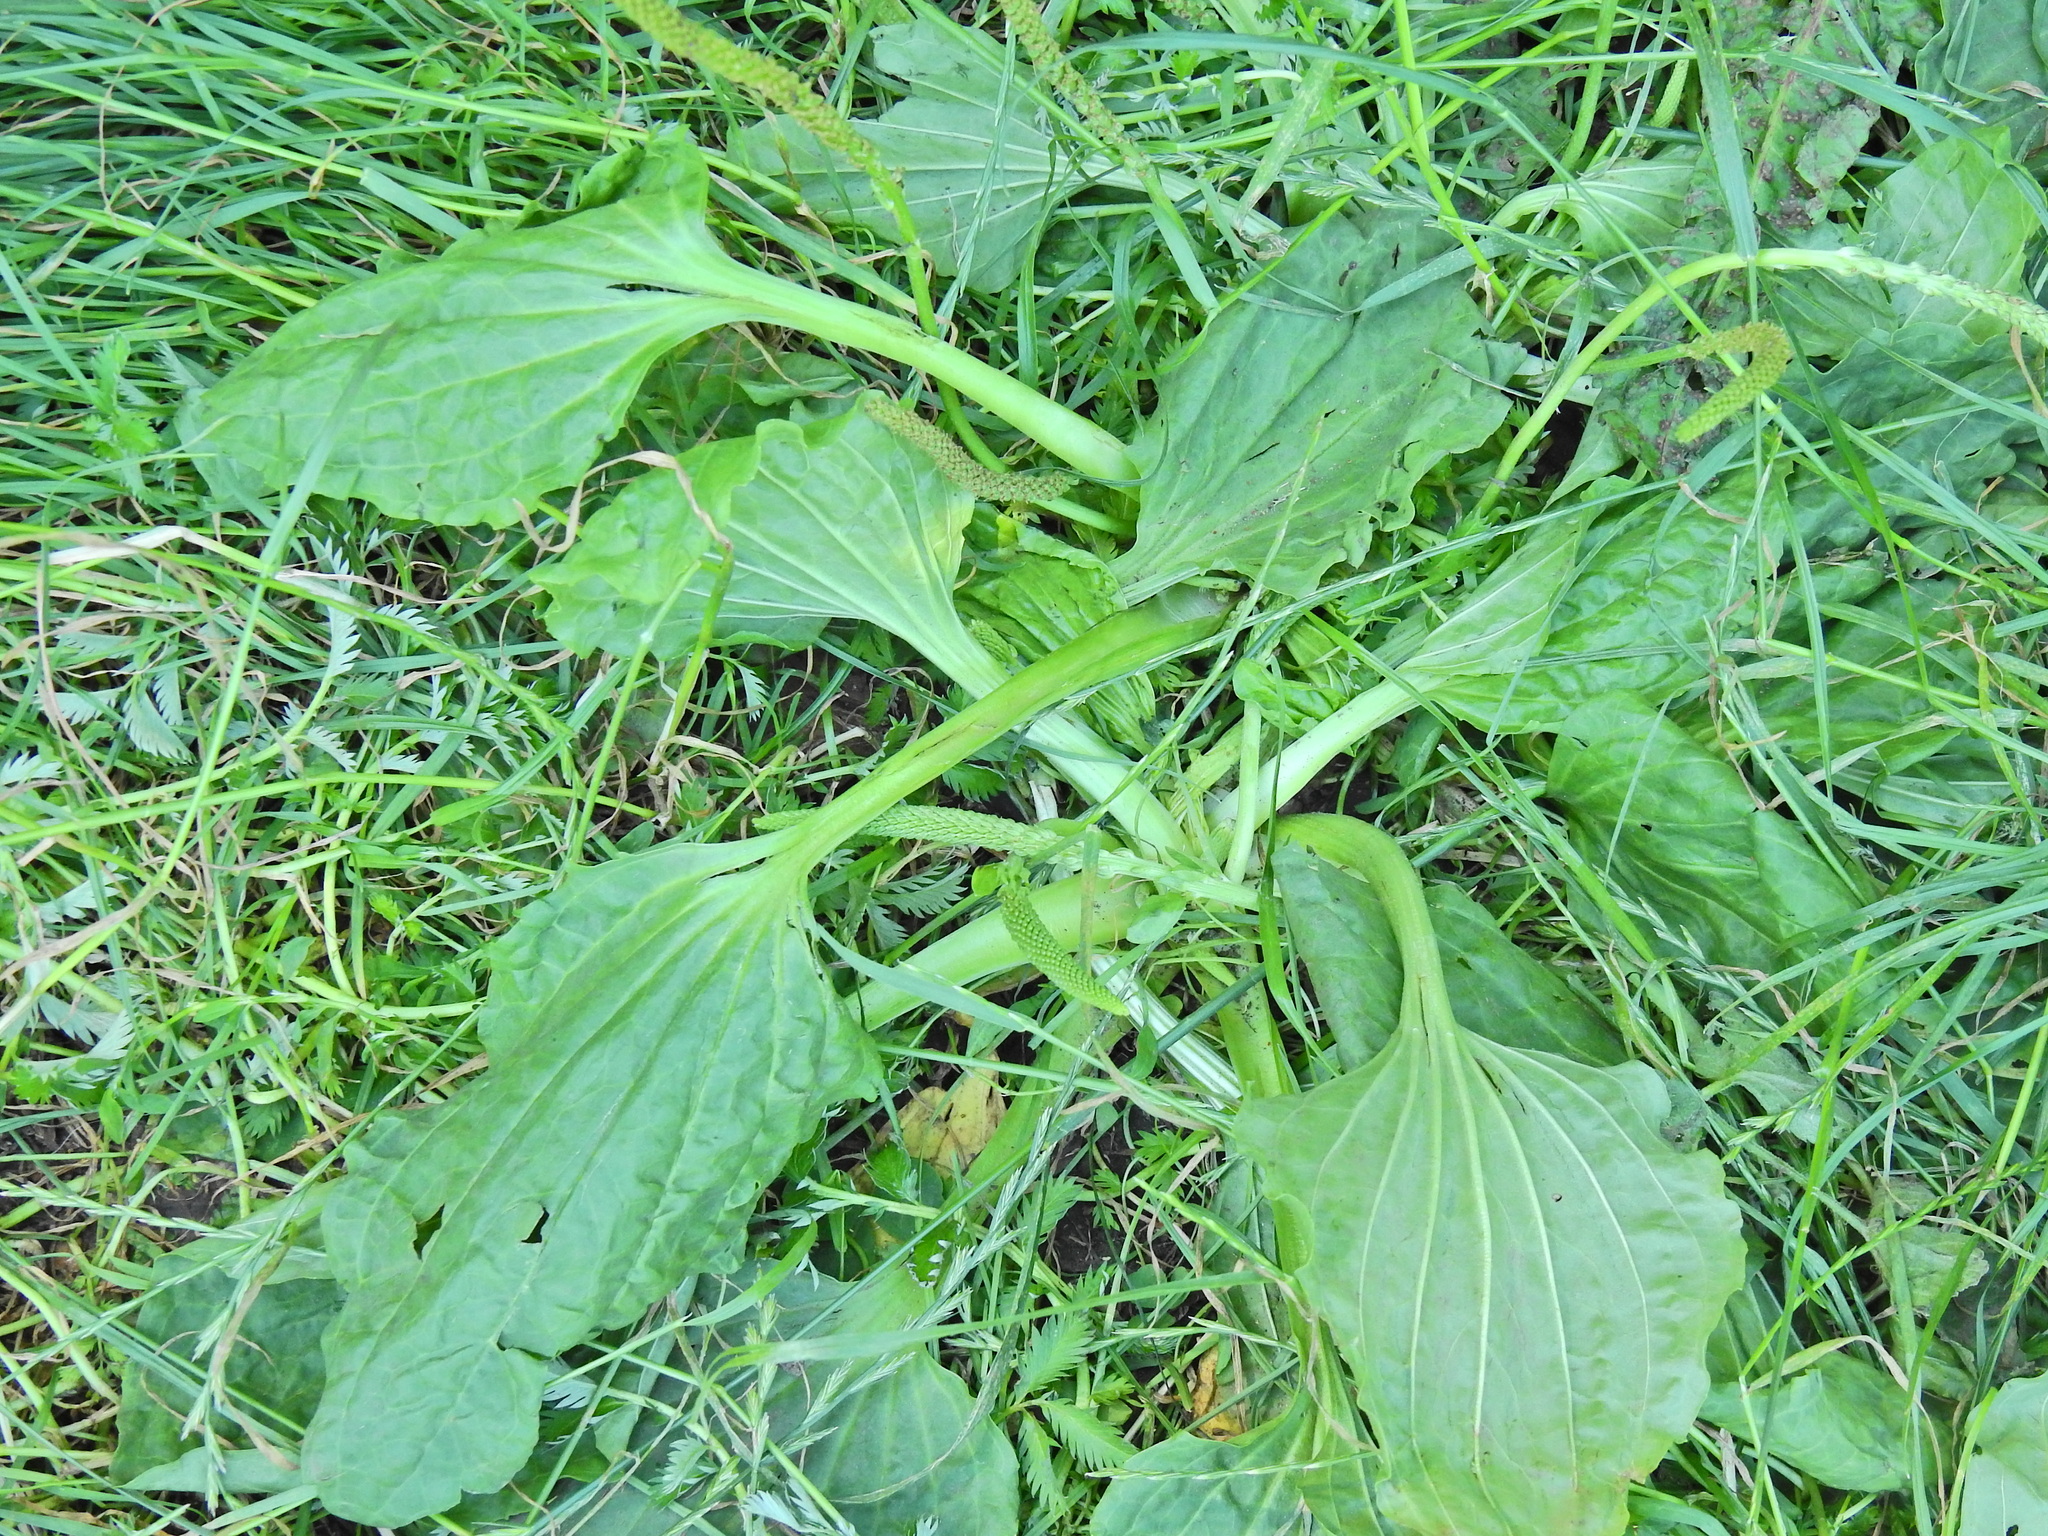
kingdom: Plantae
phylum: Tracheophyta
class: Magnoliopsida
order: Lamiales
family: Plantaginaceae
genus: Plantago
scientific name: Plantago major
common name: Common plantain
